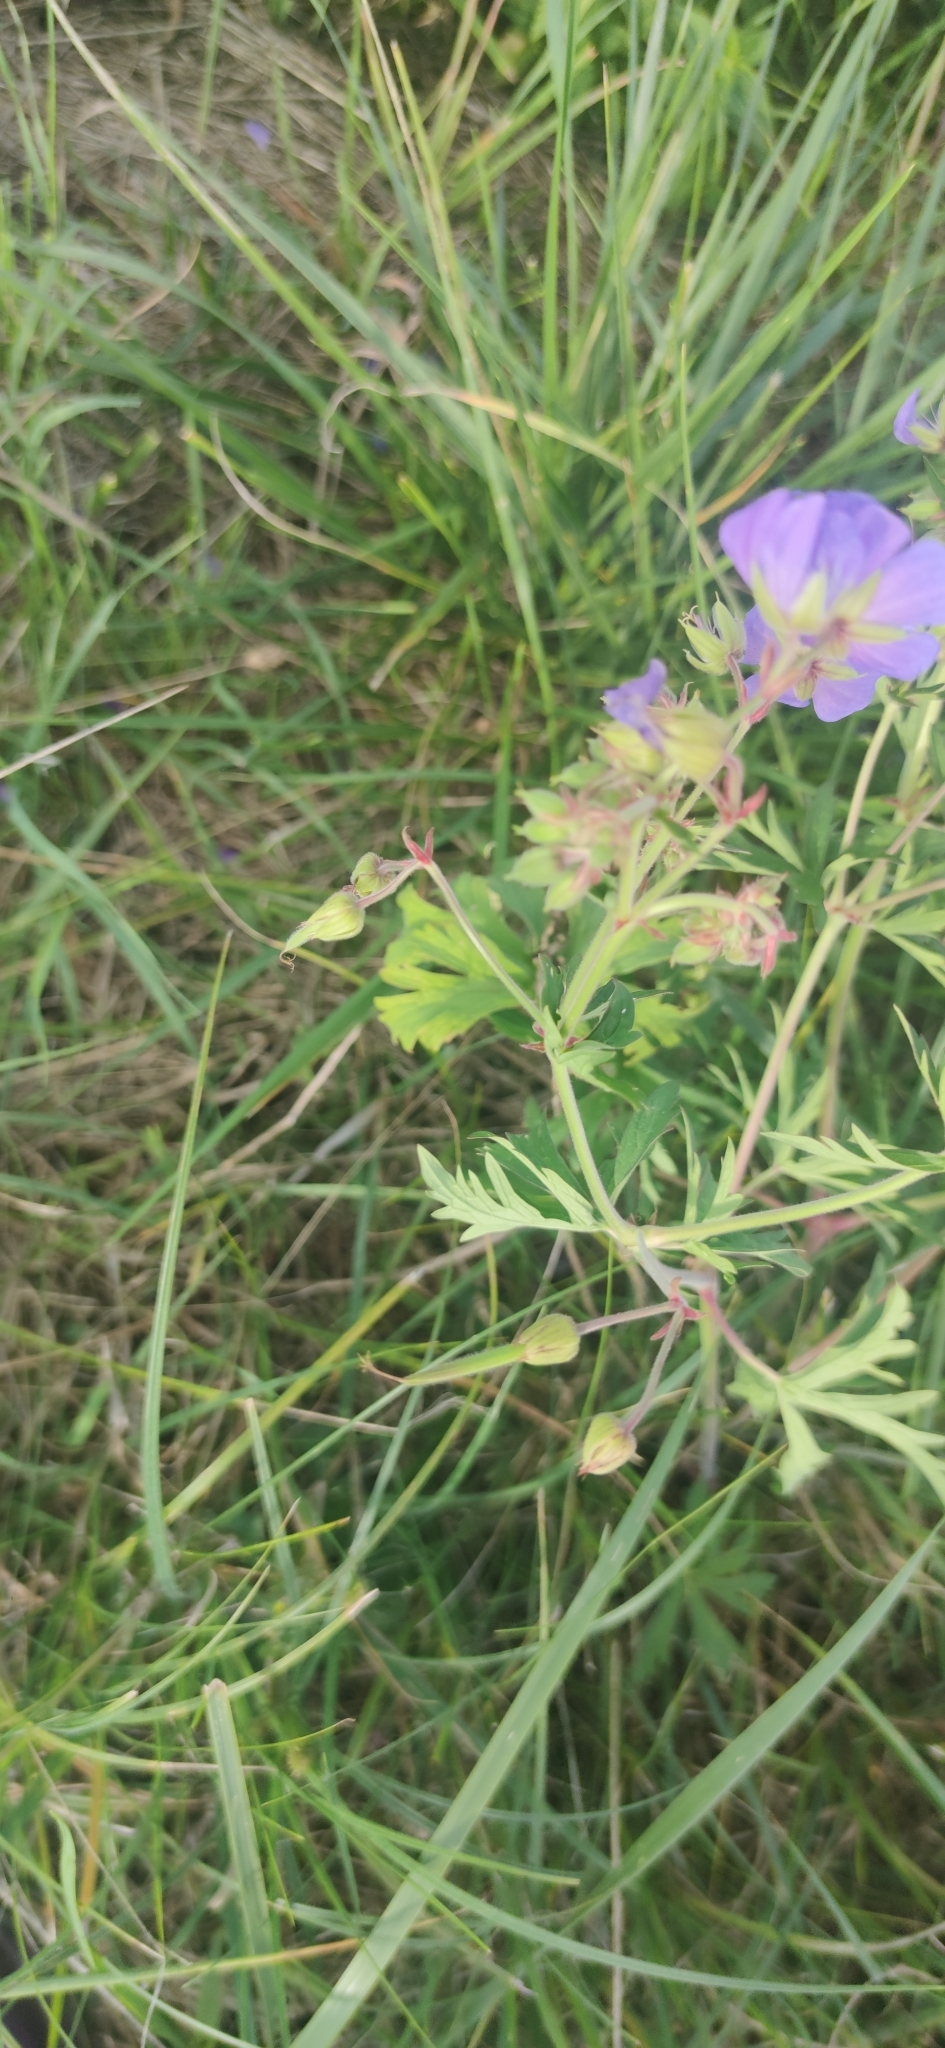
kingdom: Plantae
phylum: Tracheophyta
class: Magnoliopsida
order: Geraniales
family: Geraniaceae
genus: Geranium
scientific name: Geranium pratense
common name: Meadow crane's-bill
